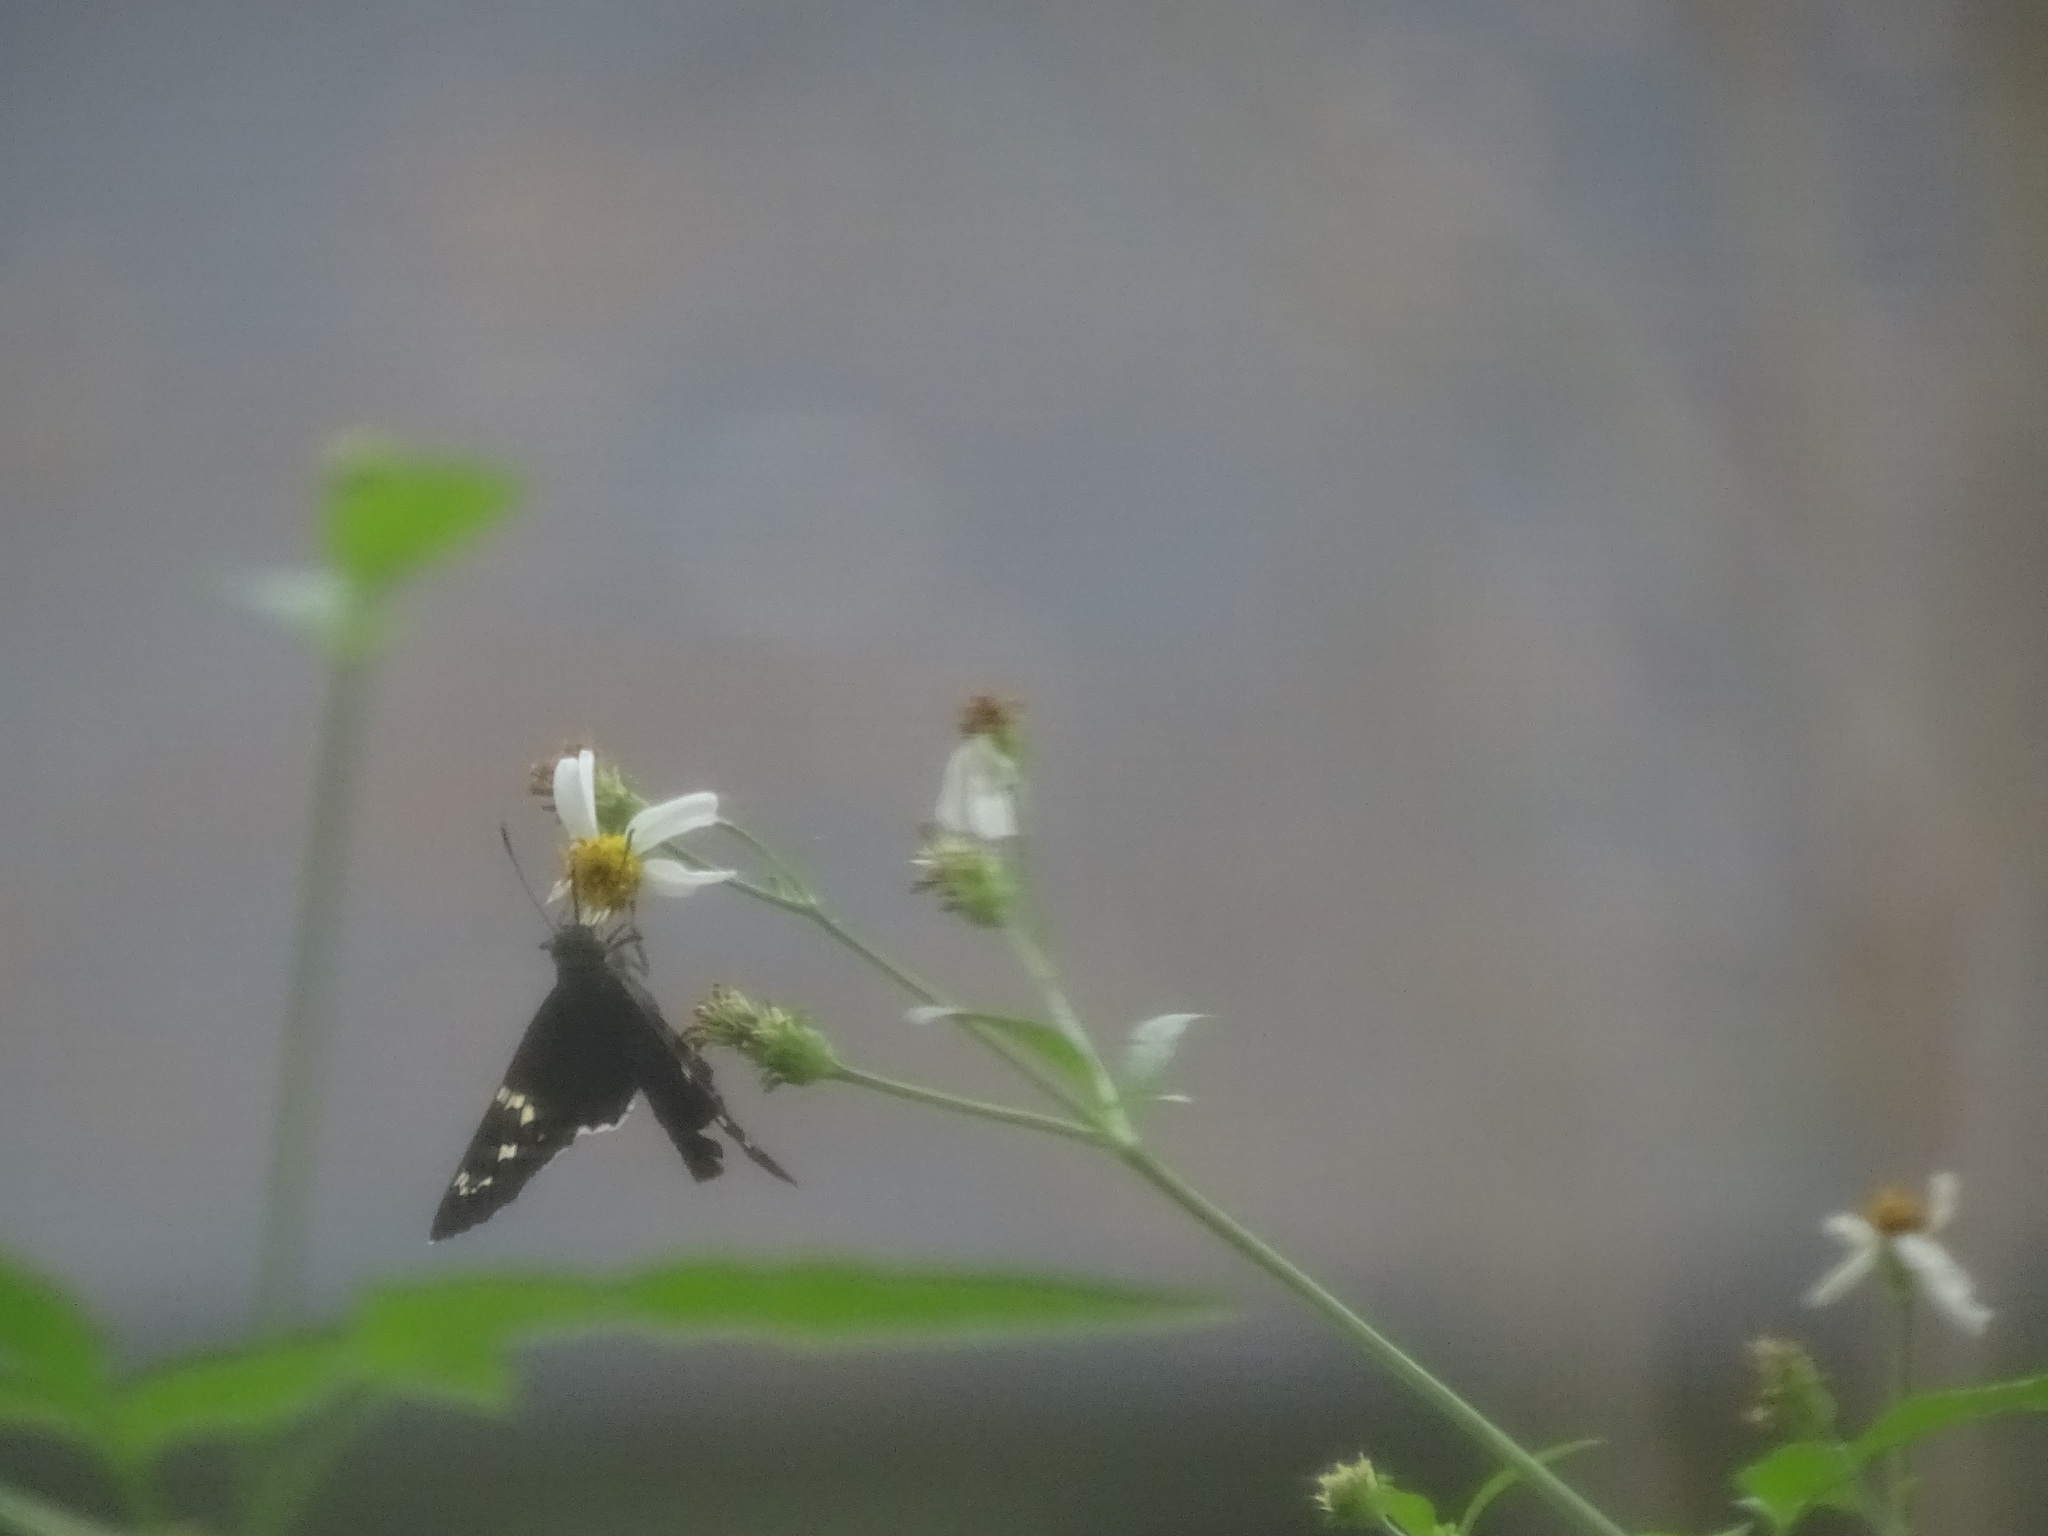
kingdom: Animalia
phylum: Arthropoda
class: Insecta
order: Lepidoptera
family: Hesperiidae
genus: Urbanus
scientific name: Urbanus proteus
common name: Long-tailed skipper
